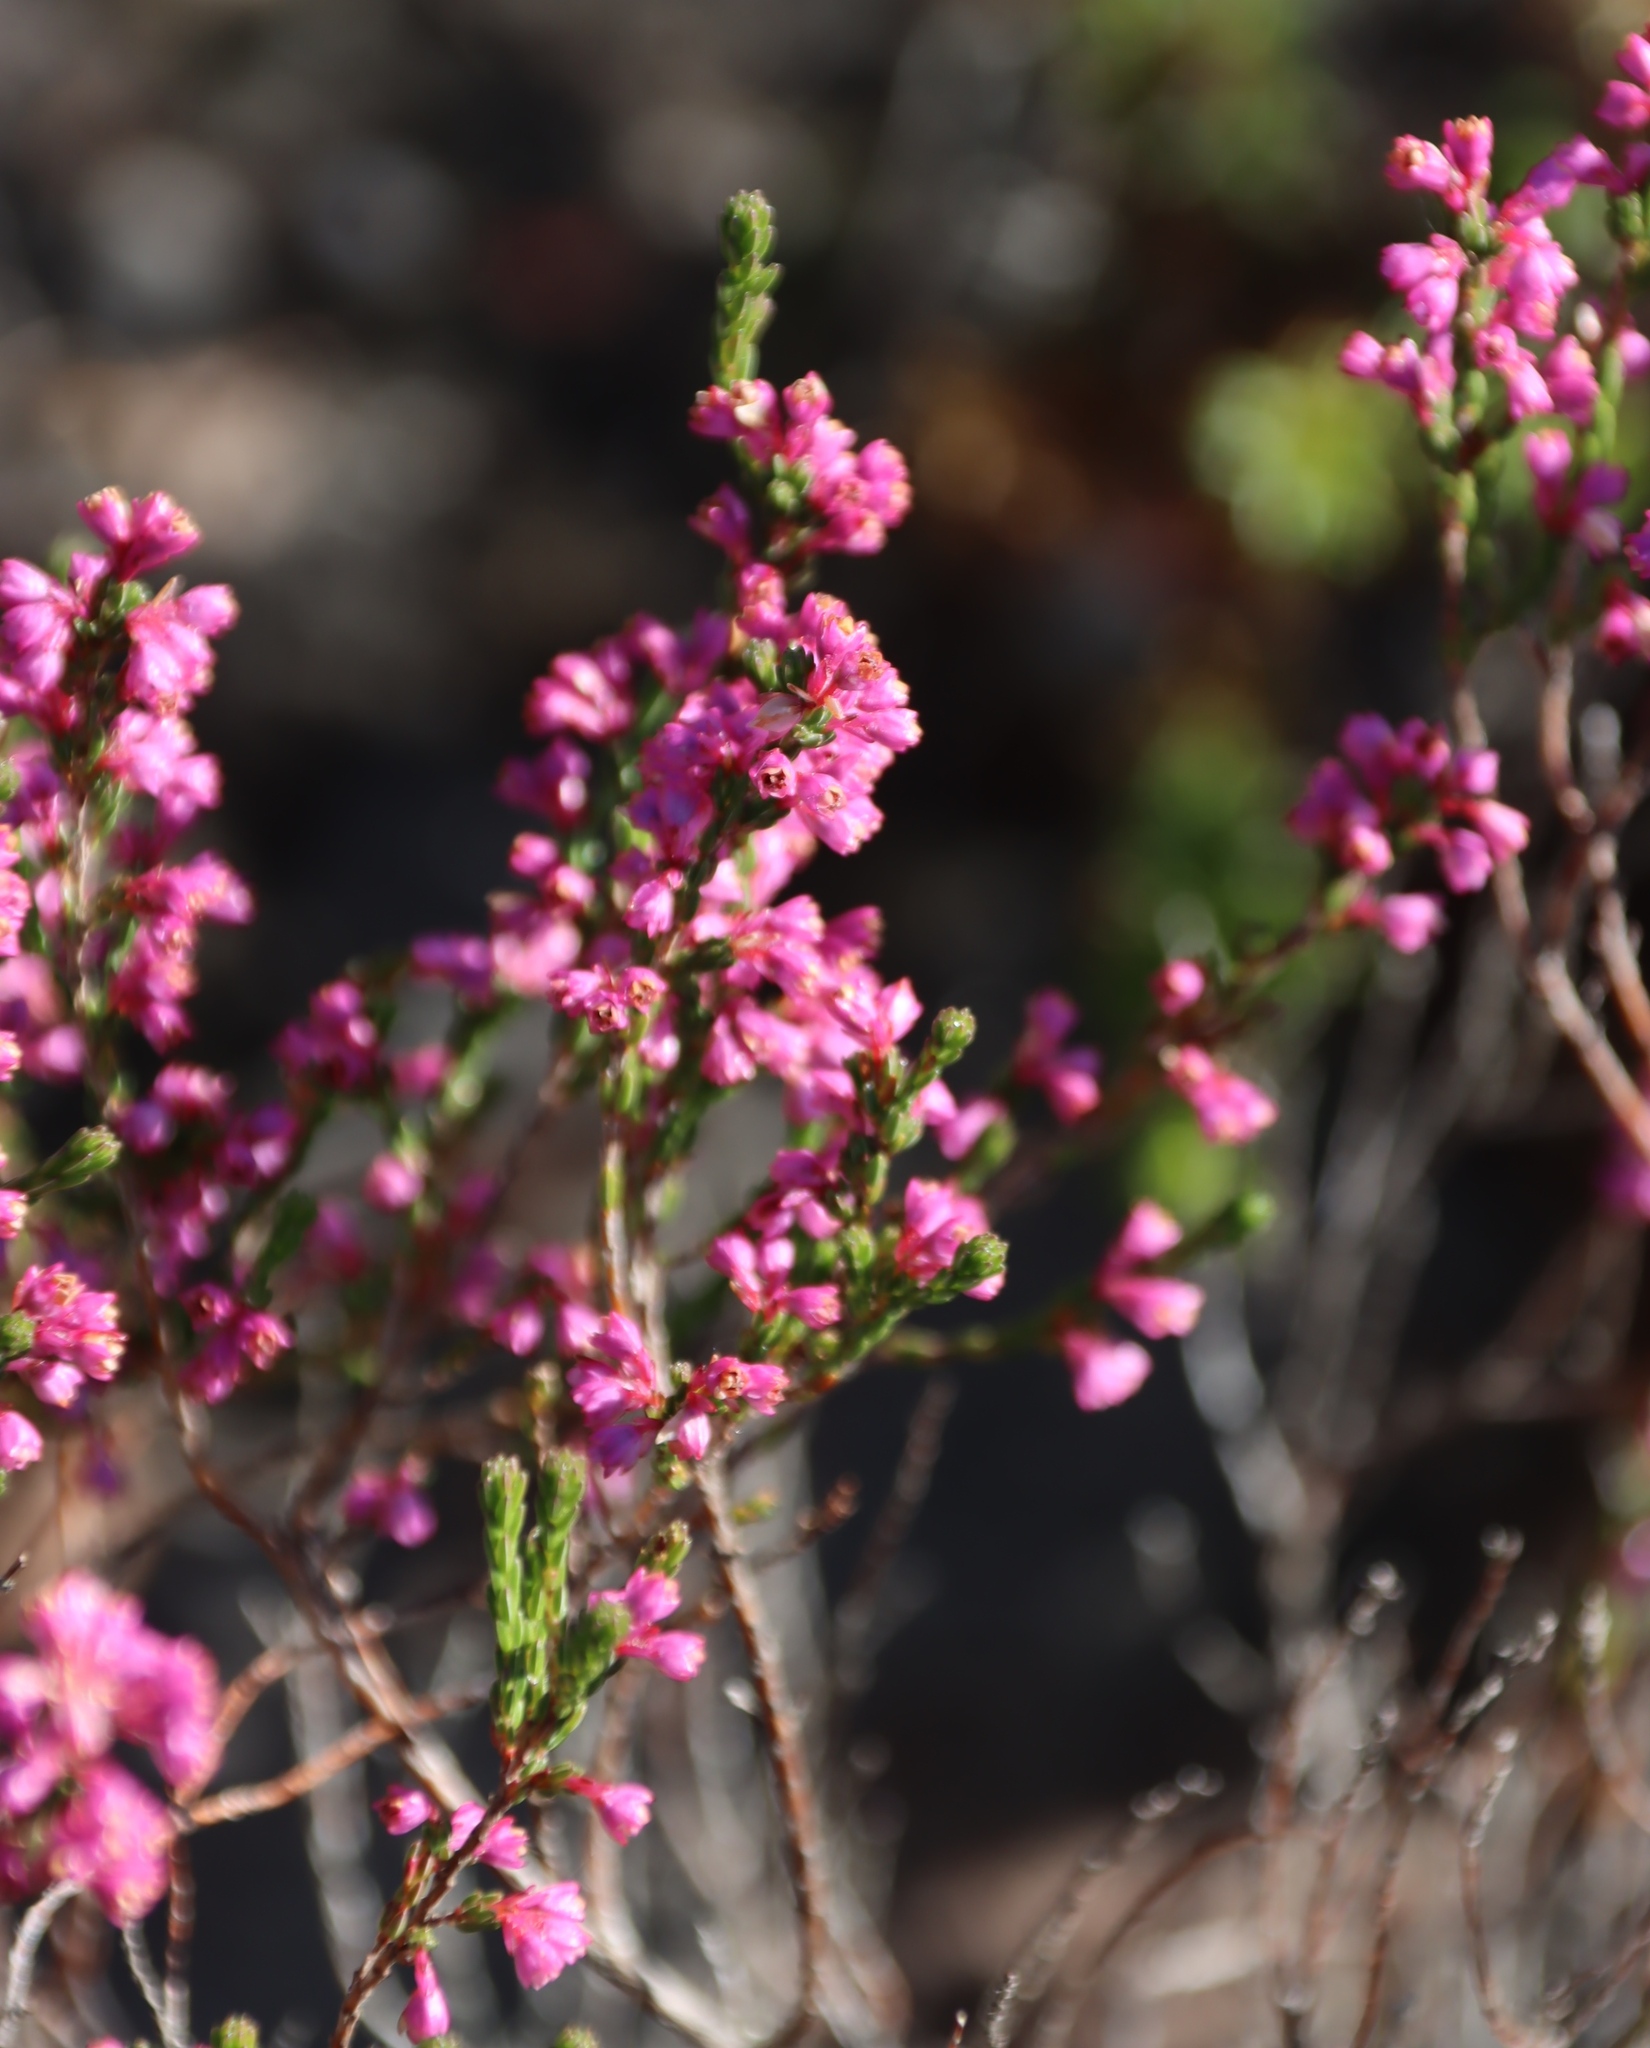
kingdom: Plantae
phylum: Tracheophyta
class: Magnoliopsida
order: Ericales
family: Ericaceae
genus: Erica
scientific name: Erica gnaphaloides
